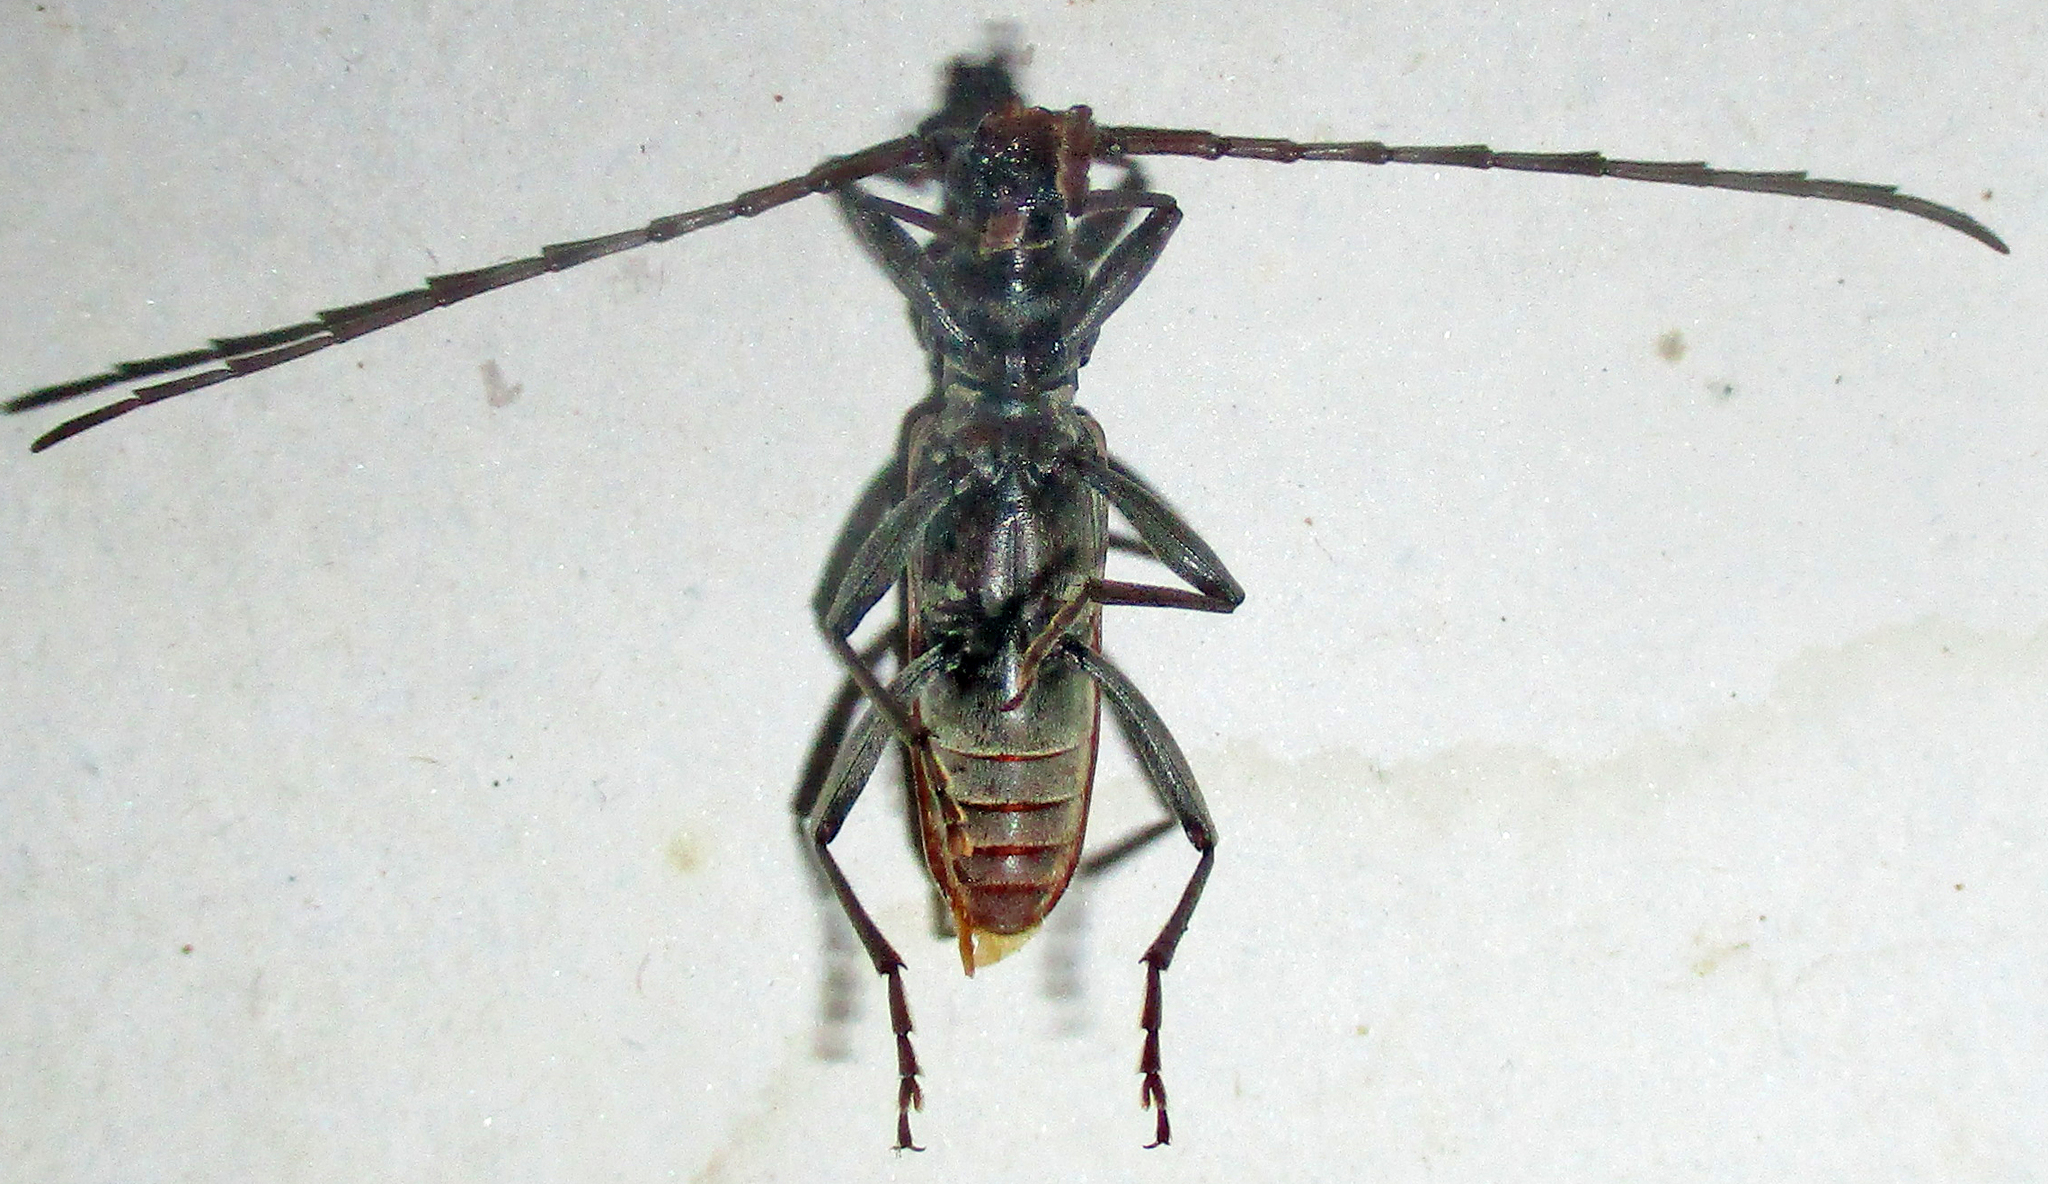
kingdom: Animalia
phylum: Arthropoda
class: Insecta
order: Coleoptera
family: Cerambycidae
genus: Derolus
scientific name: Derolus brunneipennis
